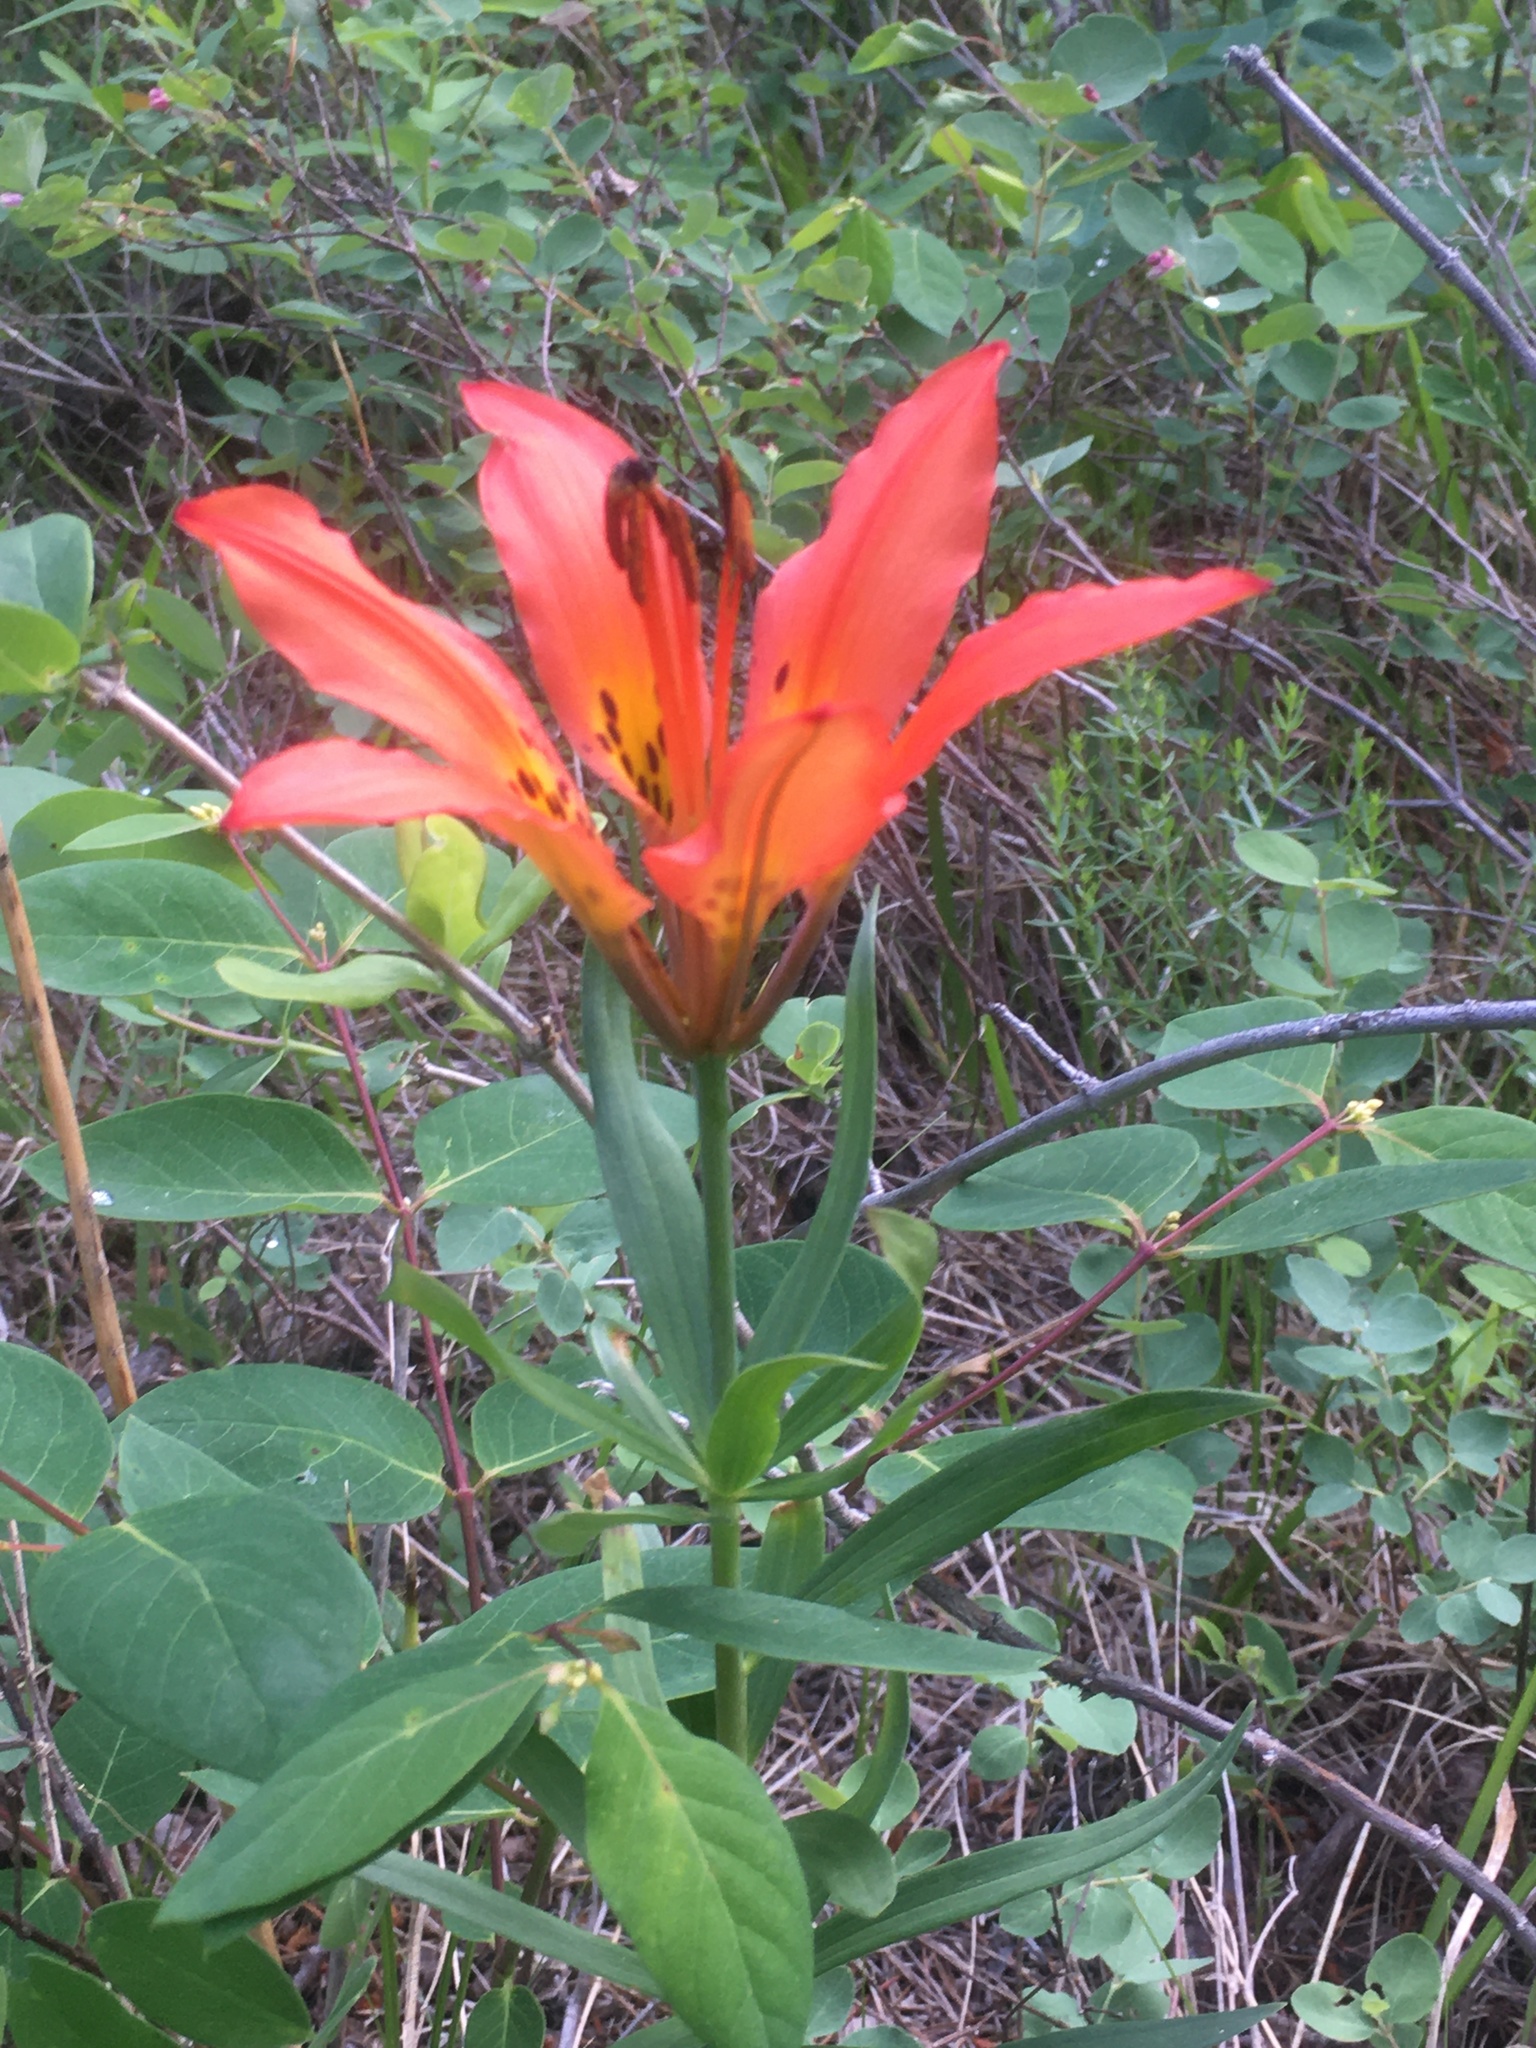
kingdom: Plantae
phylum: Tracheophyta
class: Liliopsida
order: Liliales
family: Liliaceae
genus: Lilium
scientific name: Lilium philadelphicum
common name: Red lily
